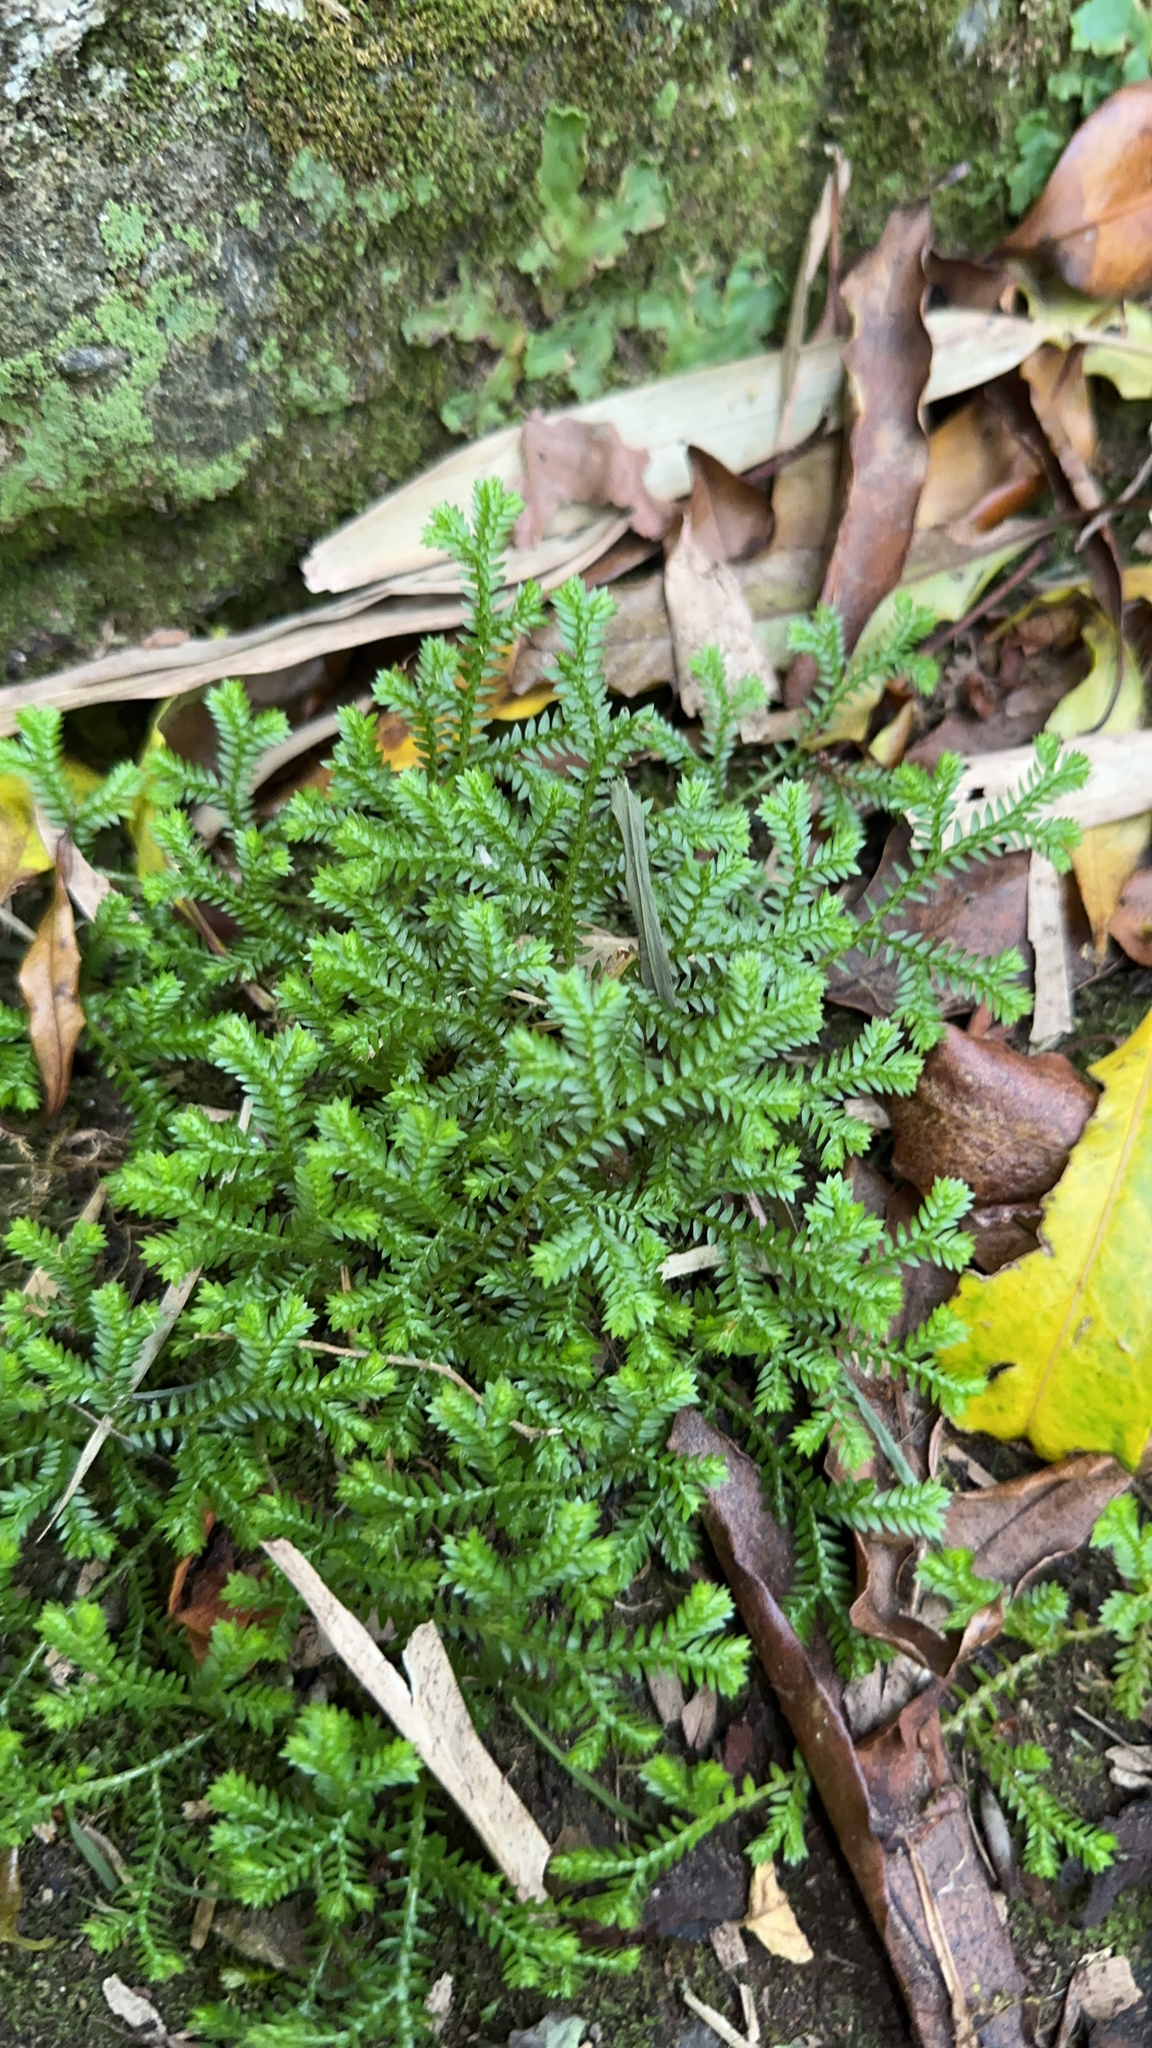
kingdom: Plantae
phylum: Tracheophyta
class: Lycopodiopsida
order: Selaginellales
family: Selaginellaceae
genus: Selaginella
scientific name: Selaginella kraussiana
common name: Krauss' spikemoss
